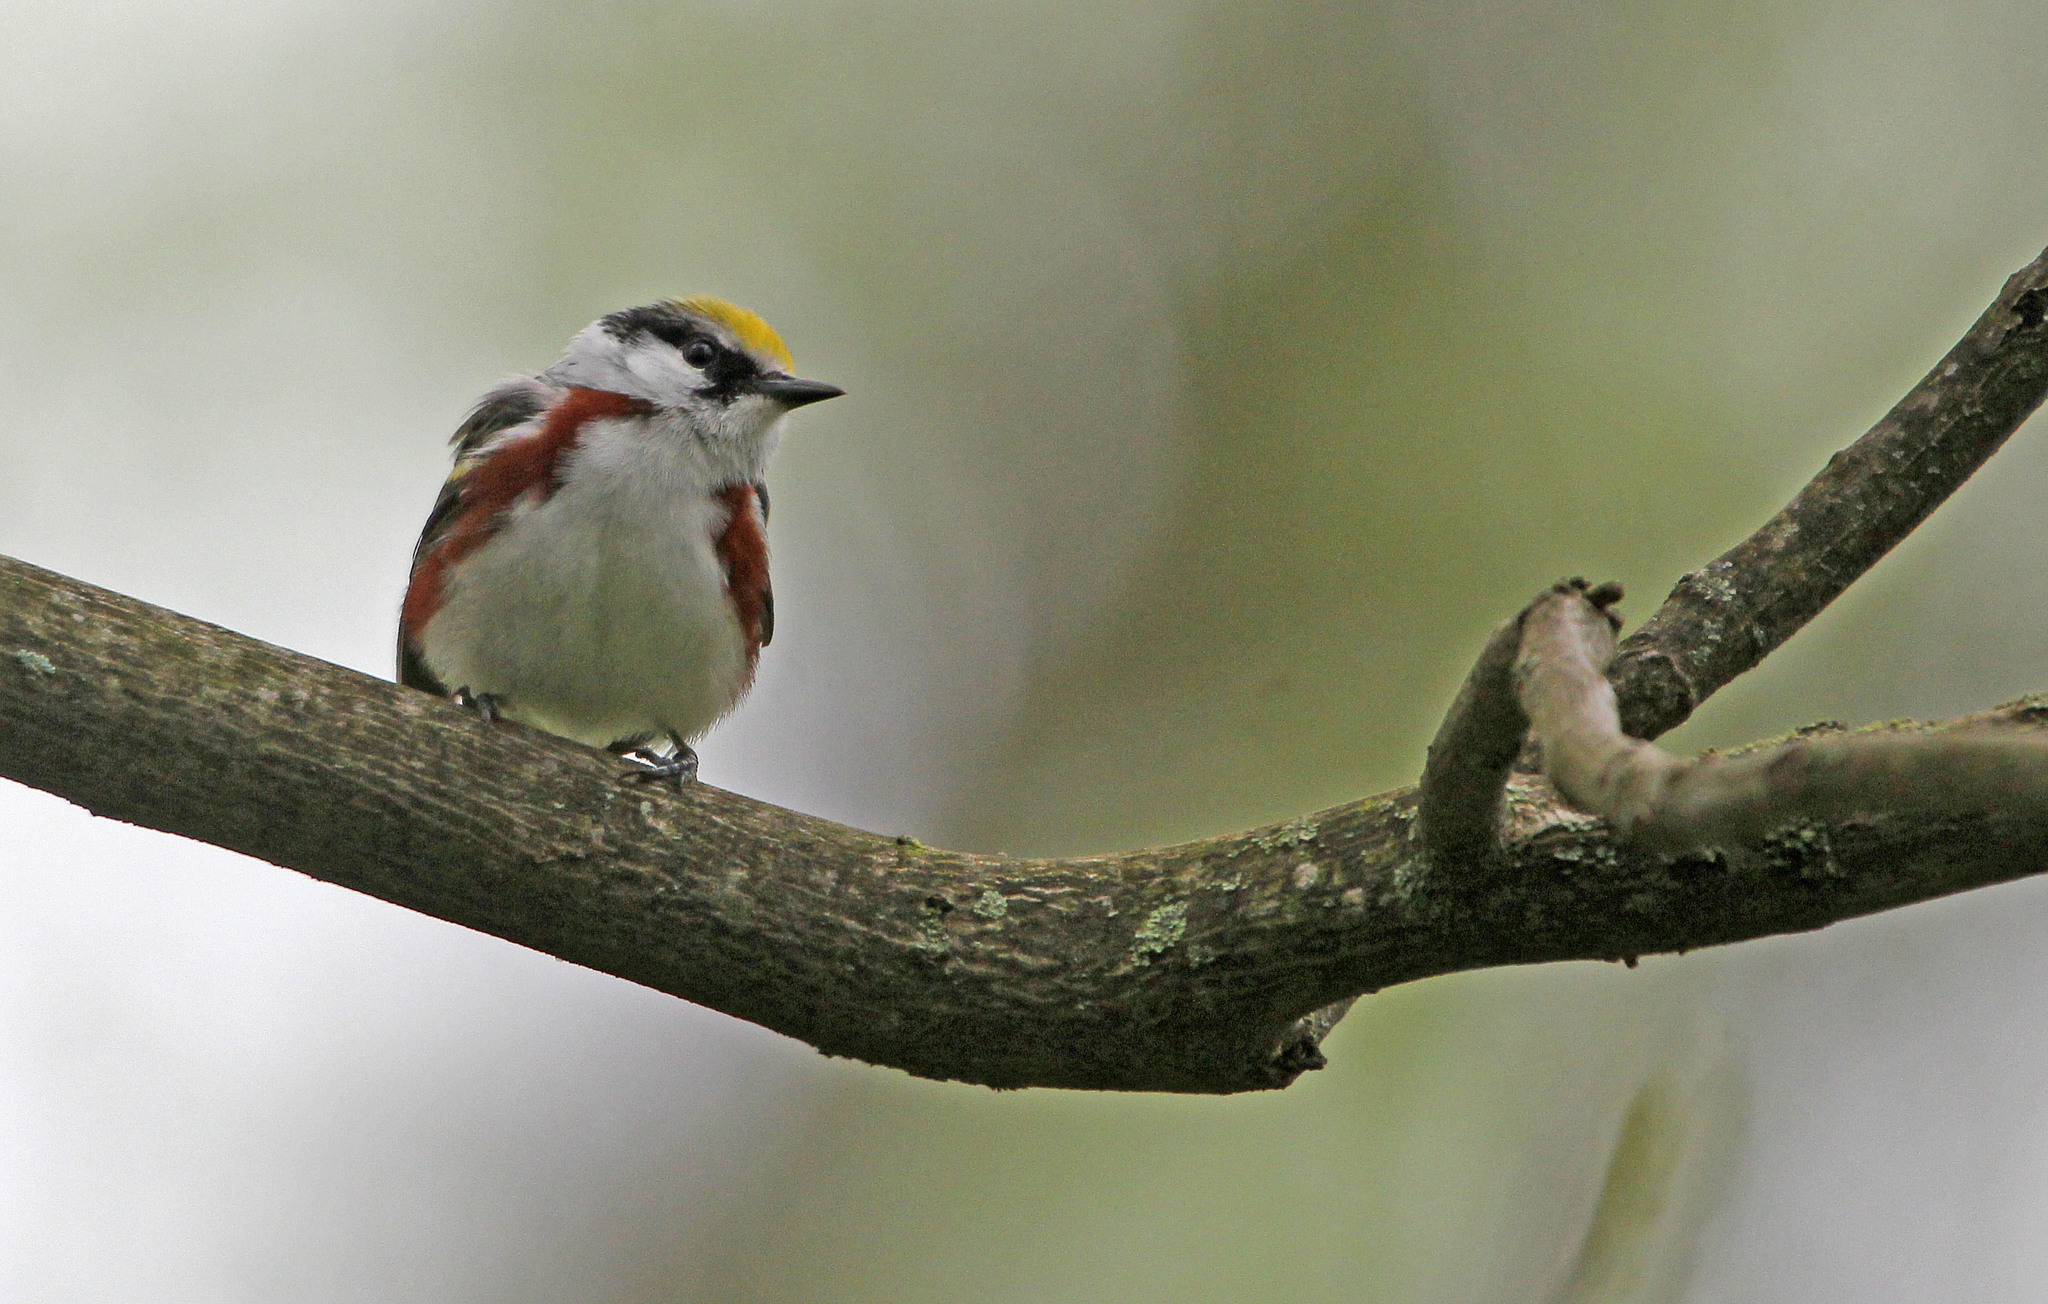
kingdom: Animalia
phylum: Chordata
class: Aves
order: Passeriformes
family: Parulidae
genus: Setophaga
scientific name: Setophaga pensylvanica
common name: Chestnut-sided warbler
